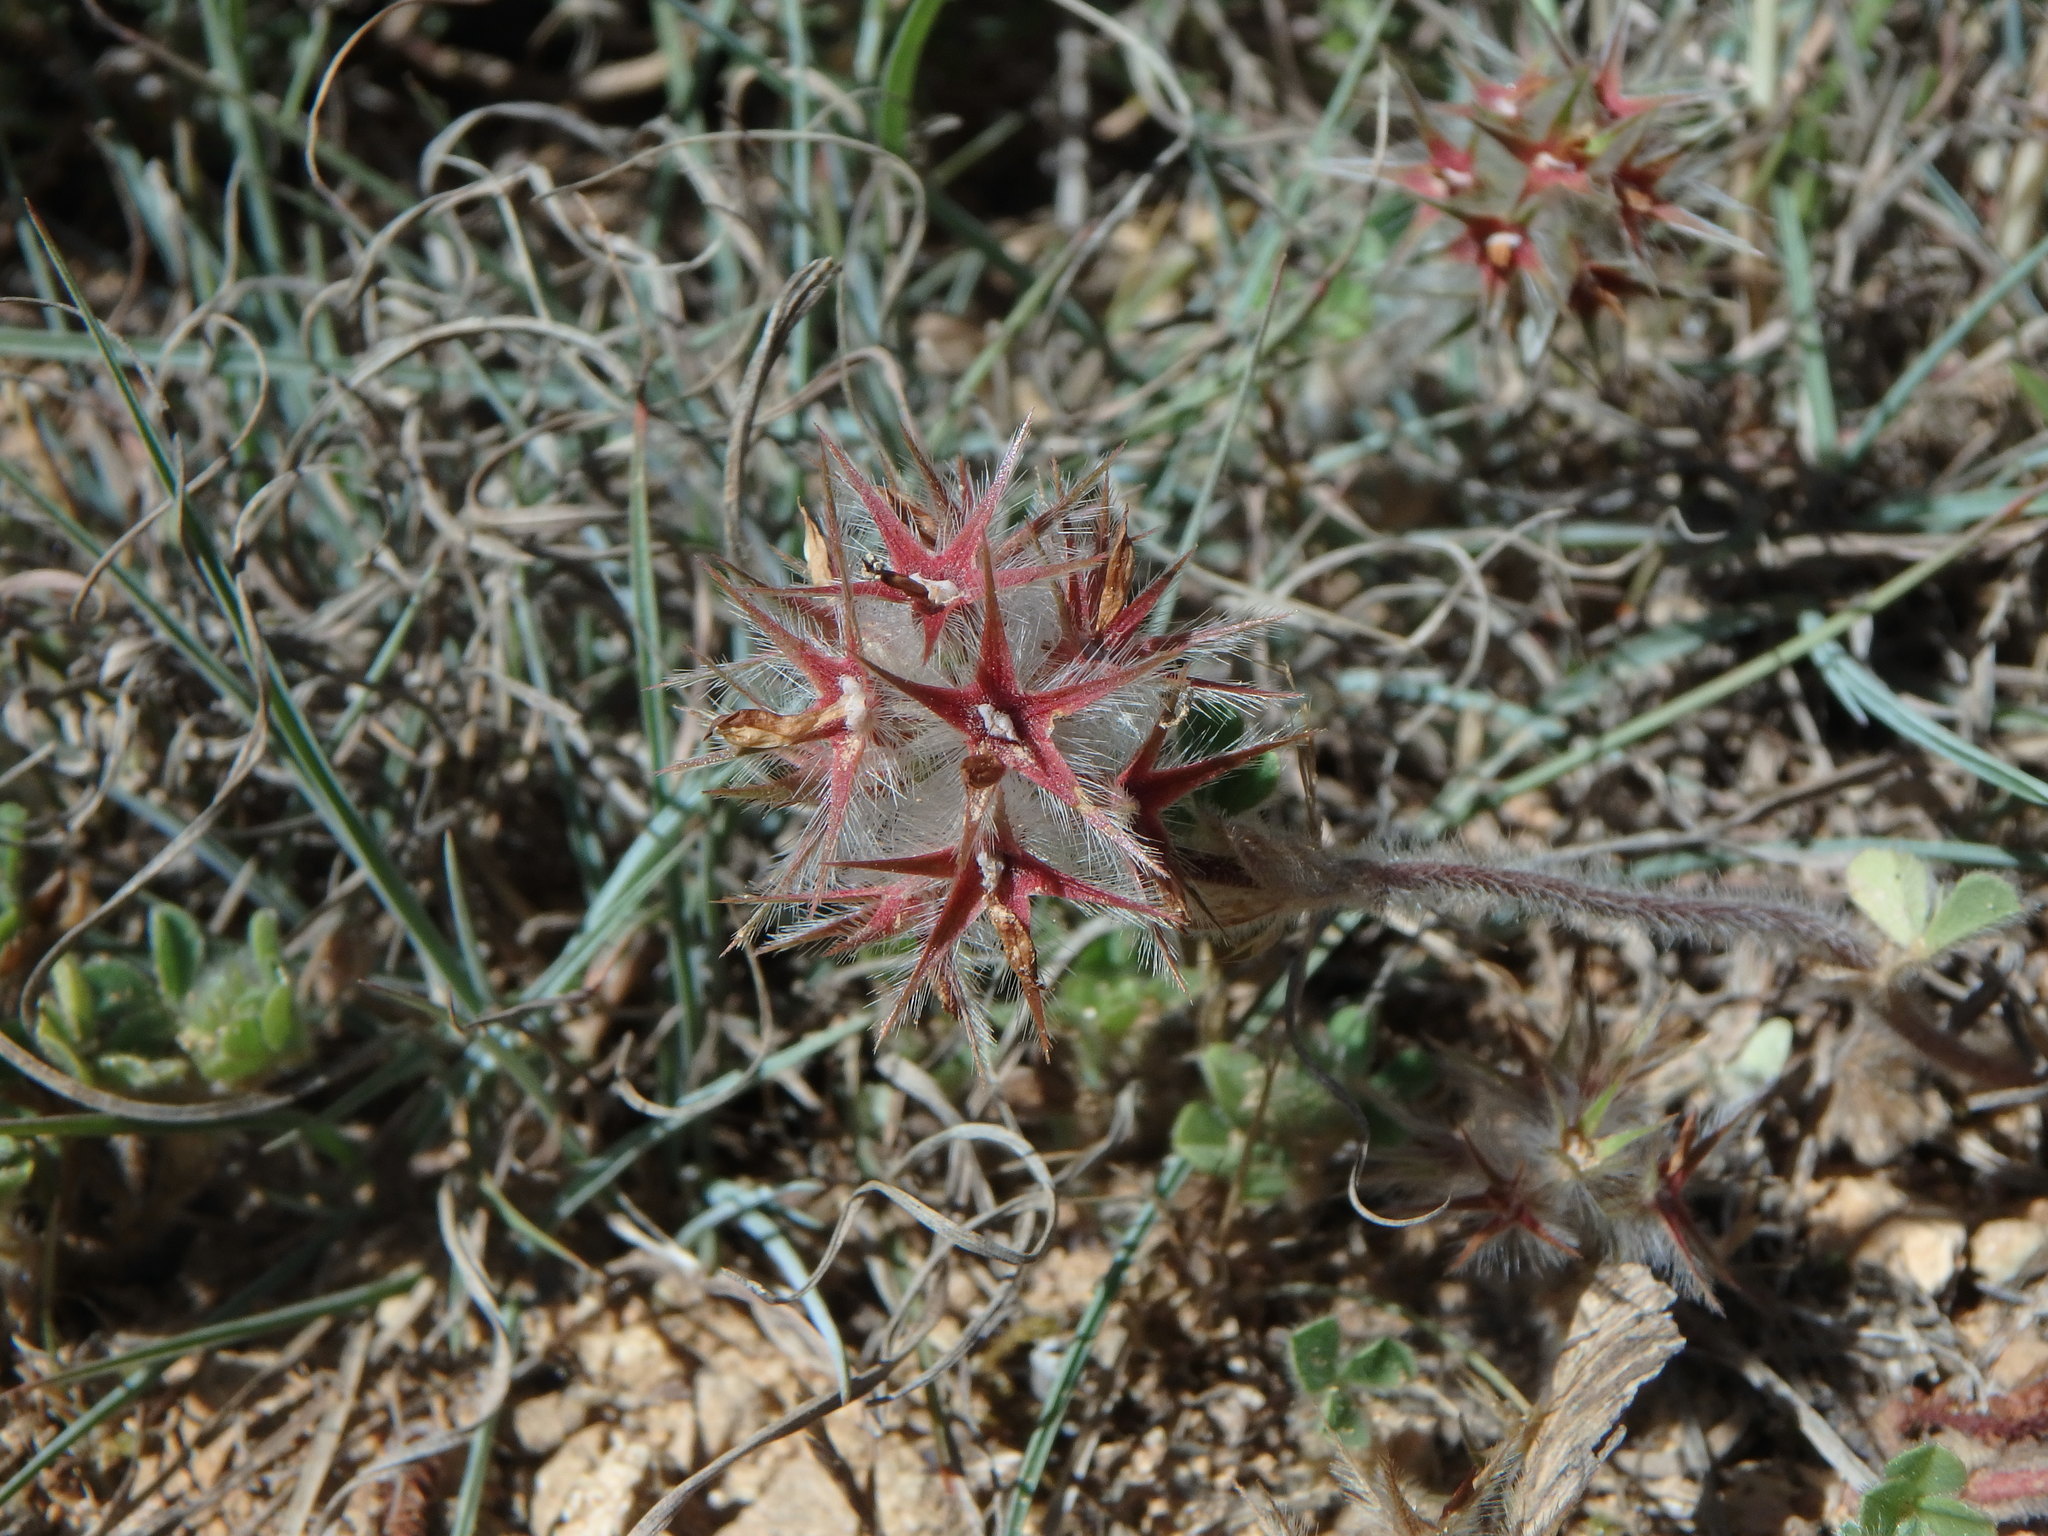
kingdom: Plantae
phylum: Tracheophyta
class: Magnoliopsida
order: Fabales
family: Fabaceae
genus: Trifolium
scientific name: Trifolium stellatum
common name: Starry clover
